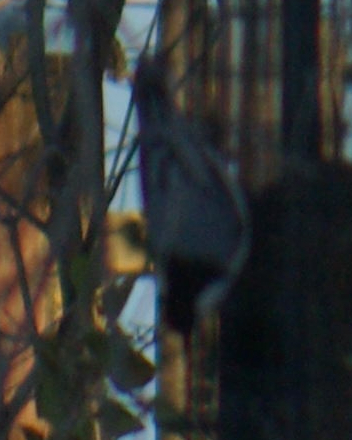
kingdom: Animalia
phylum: Chordata
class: Aves
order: Passeriformes
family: Sittidae
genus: Sitta
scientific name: Sitta carolinensis
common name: White-breasted nuthatch
